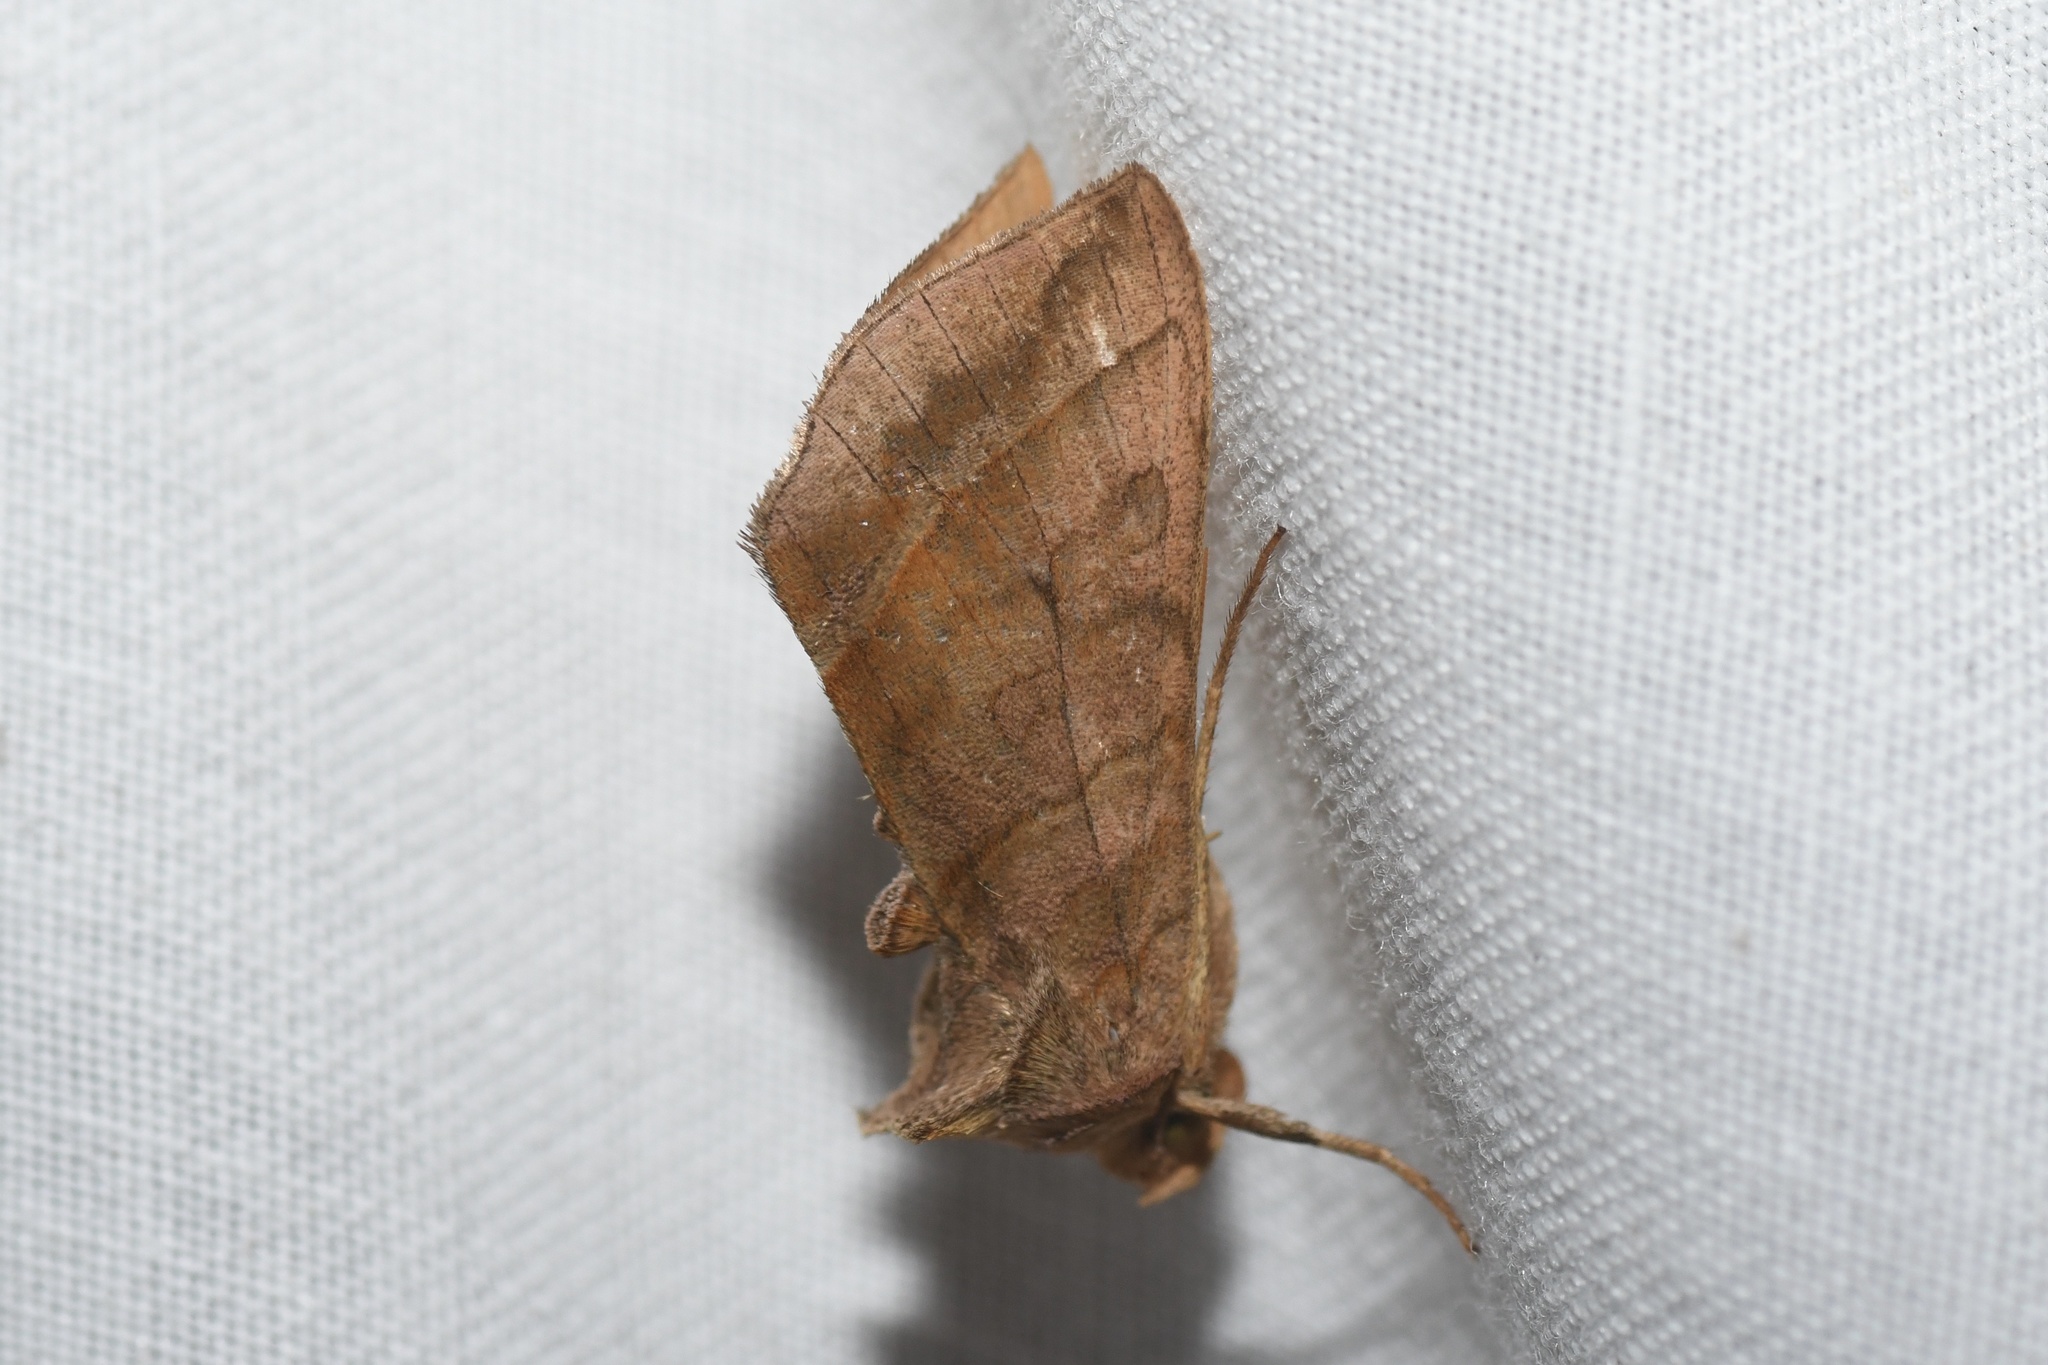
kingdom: Animalia
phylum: Arthropoda
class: Insecta
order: Lepidoptera
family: Noctuidae
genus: Diachrysia
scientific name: Diachrysia aereoides
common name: Dark-spotted looper moth
